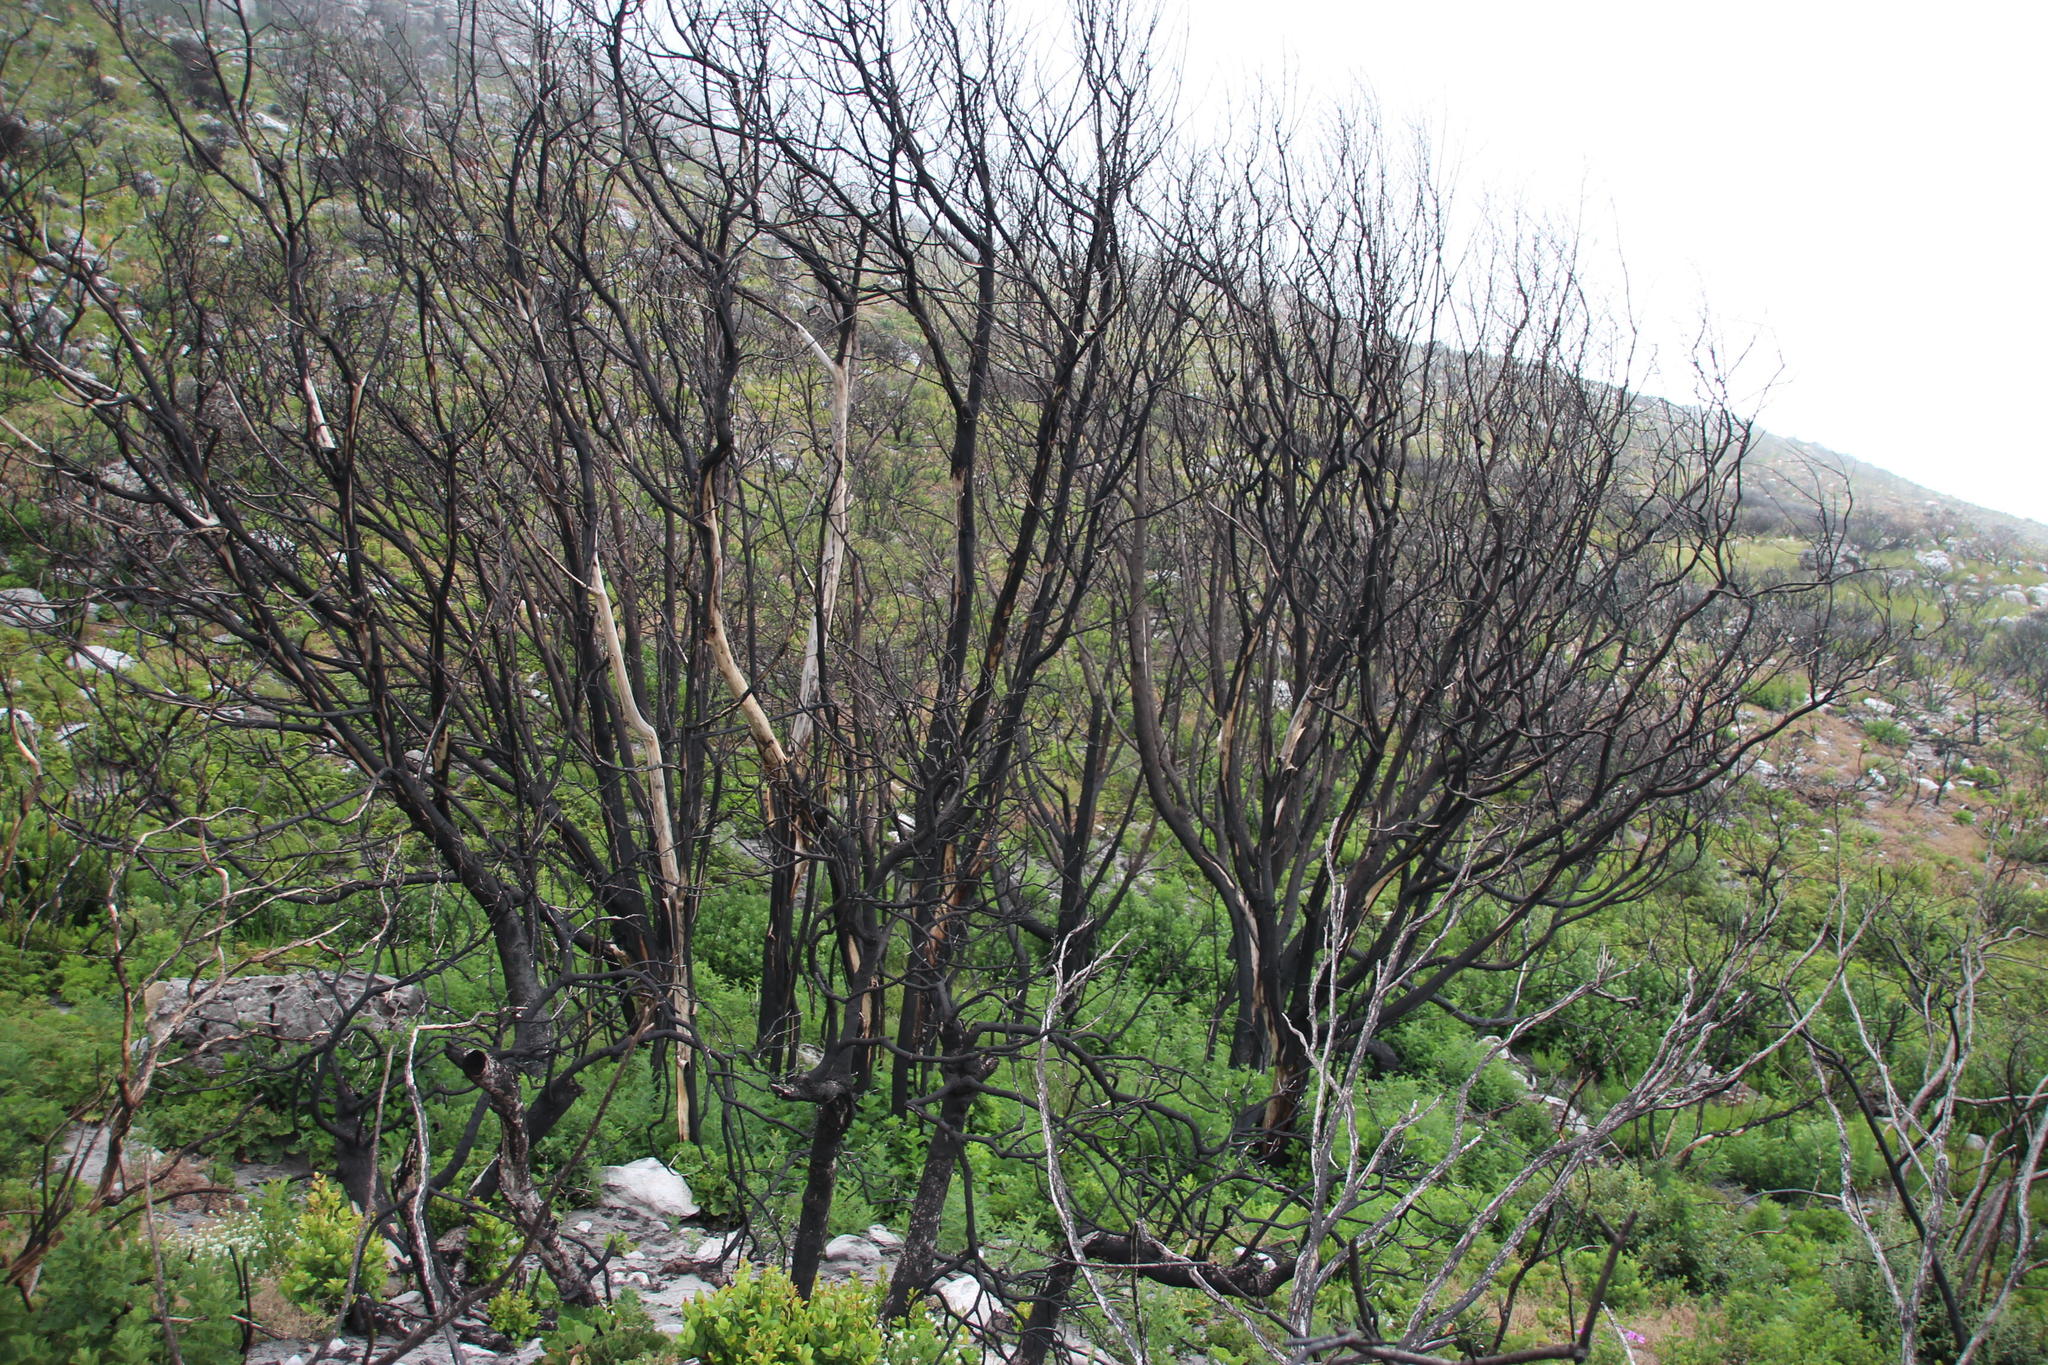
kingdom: Plantae
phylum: Tracheophyta
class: Magnoliopsida
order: Fabales
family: Fabaceae
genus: Virgilia
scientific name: Virgilia oroboides
